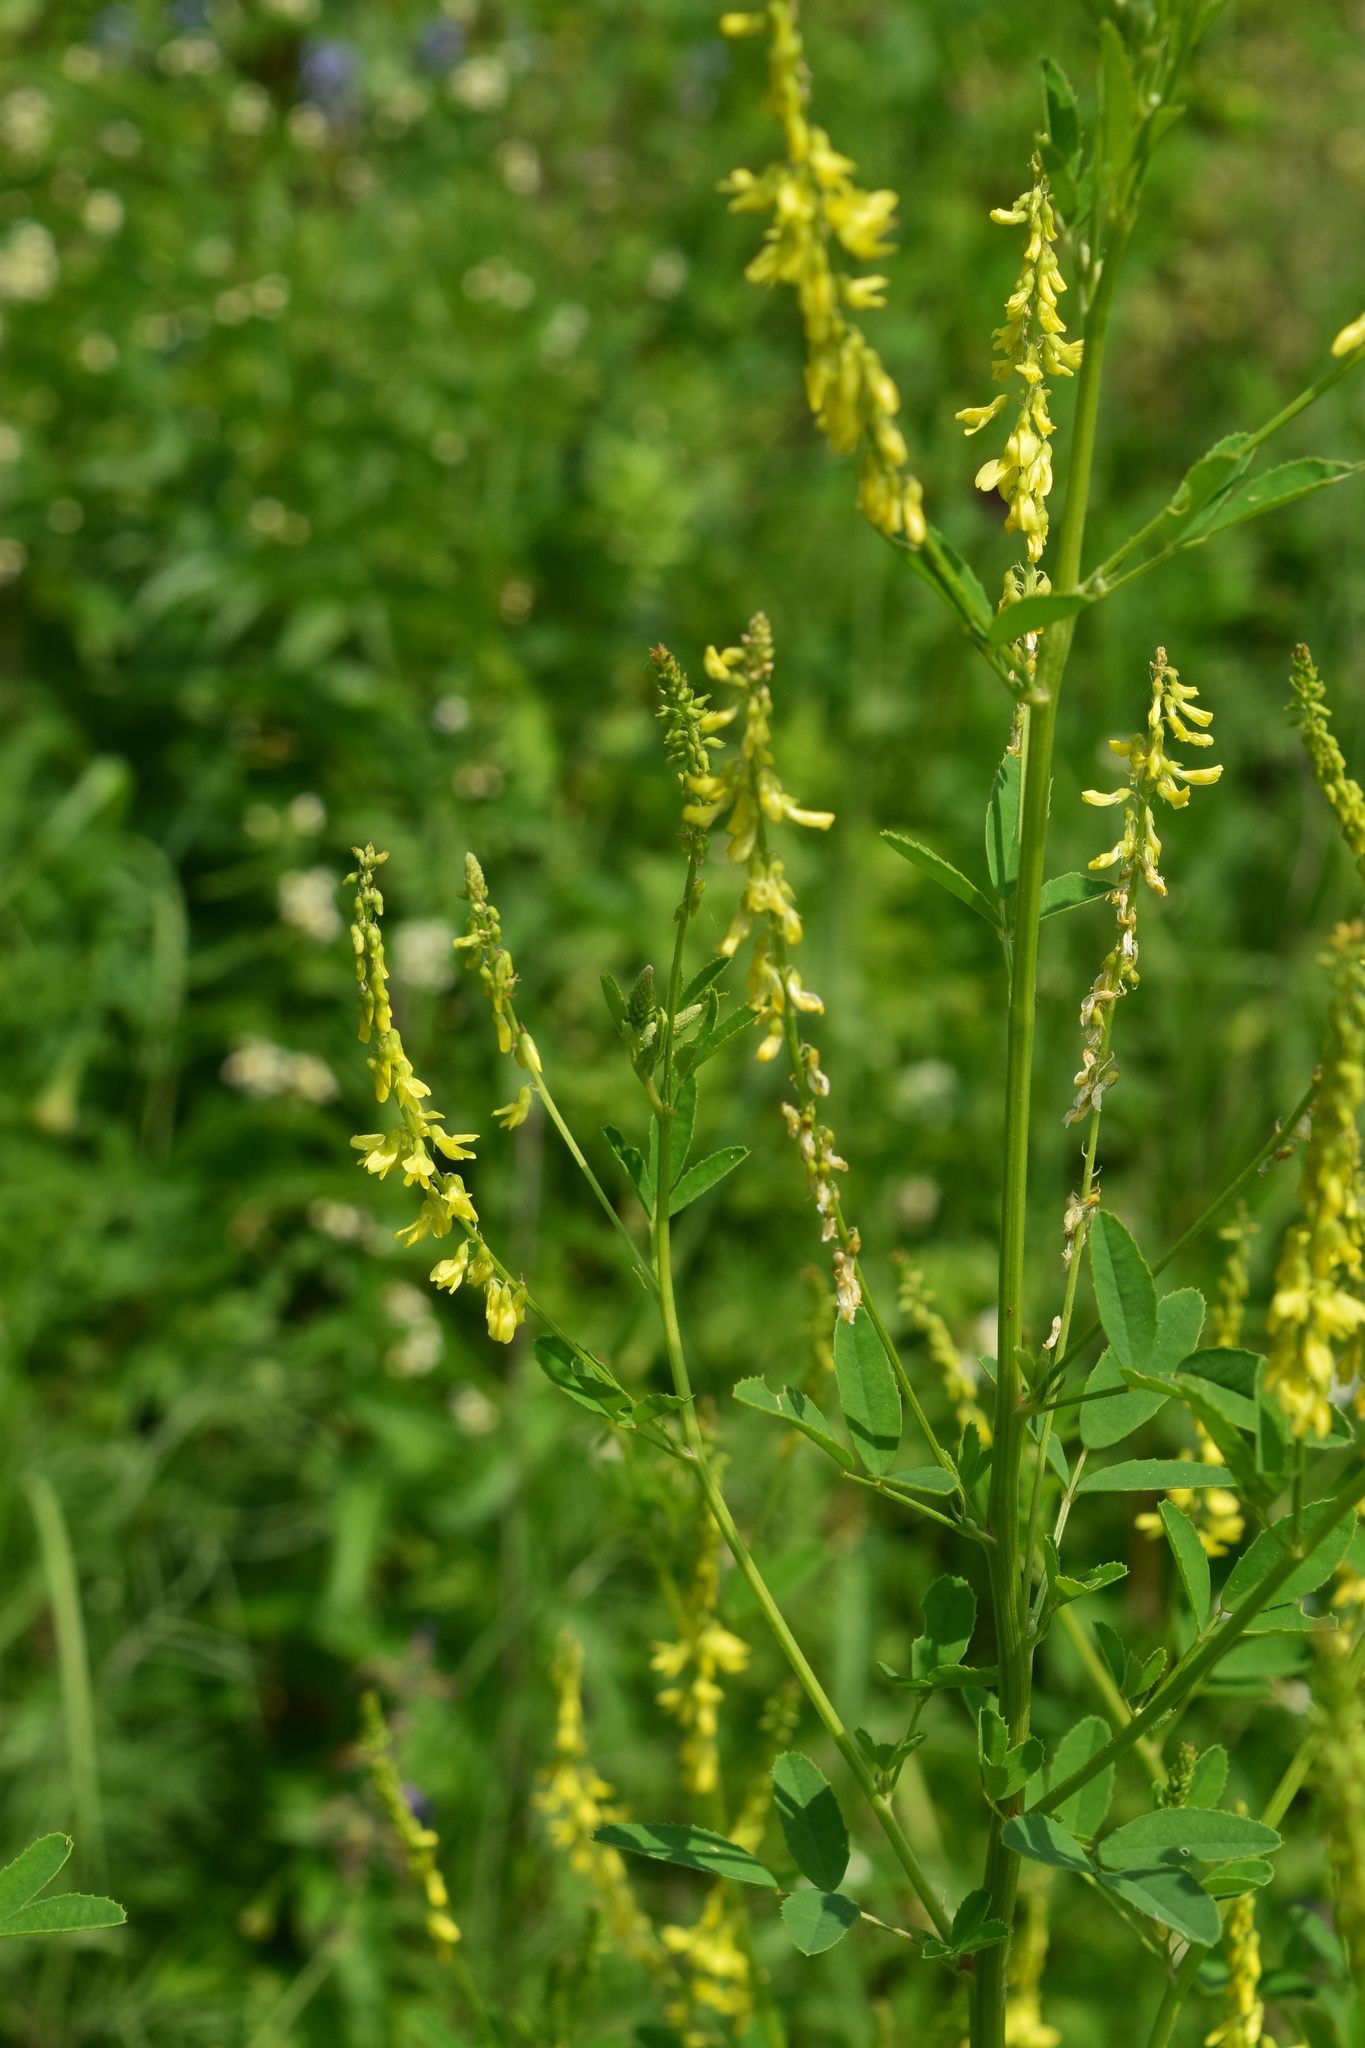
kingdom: Plantae
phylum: Tracheophyta
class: Magnoliopsida
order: Fabales
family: Fabaceae
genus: Melilotus
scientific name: Melilotus officinalis
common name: Sweetclover
